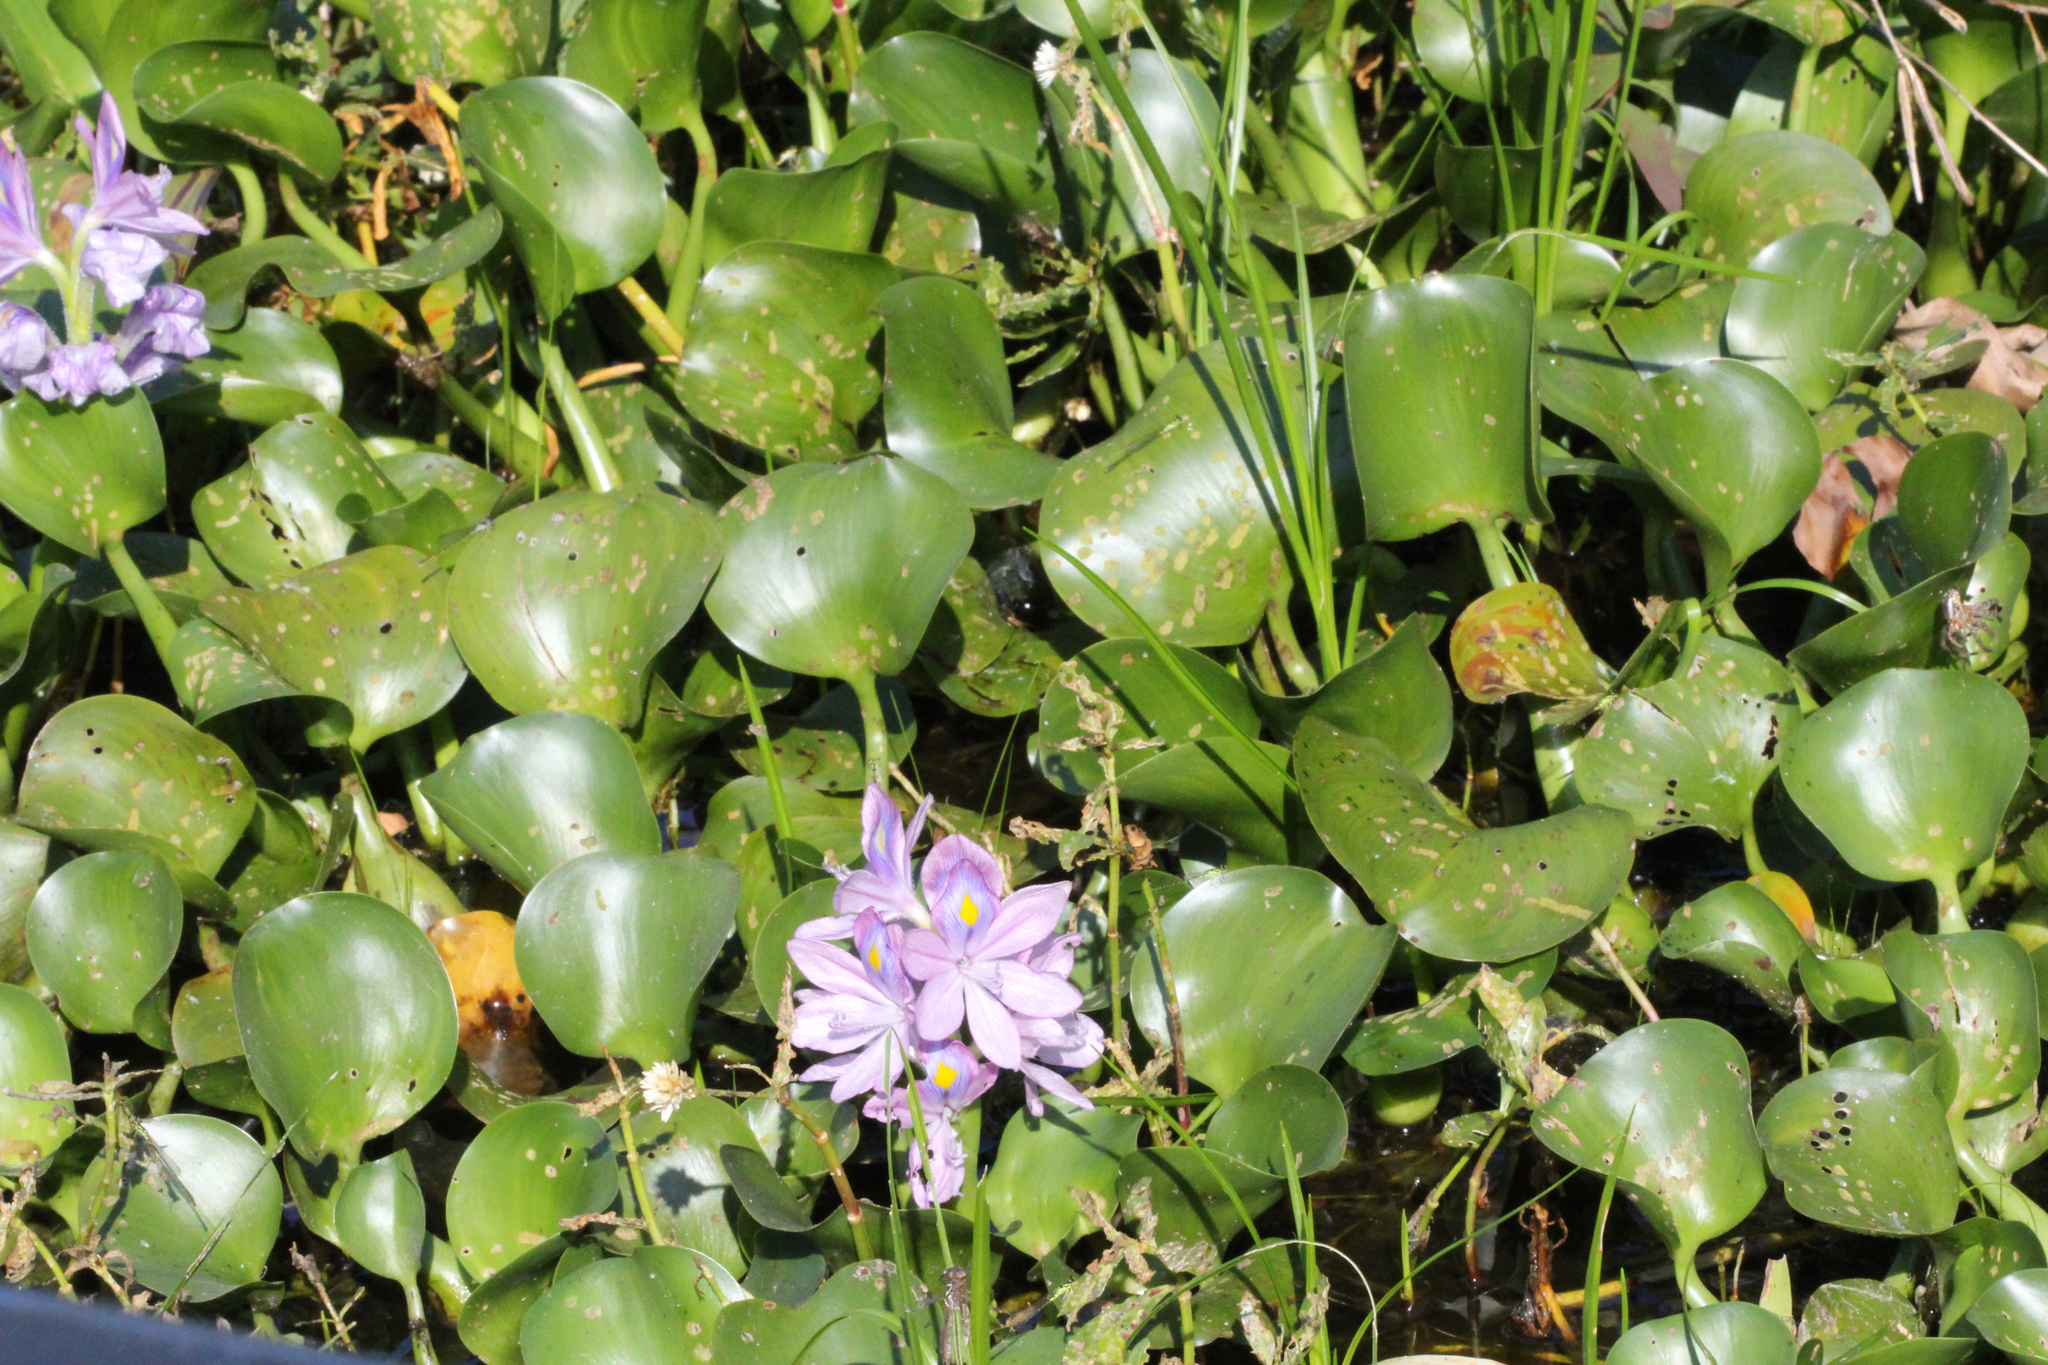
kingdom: Plantae
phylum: Tracheophyta
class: Liliopsida
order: Commelinales
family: Pontederiaceae
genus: Pontederia
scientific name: Pontederia crassipes
